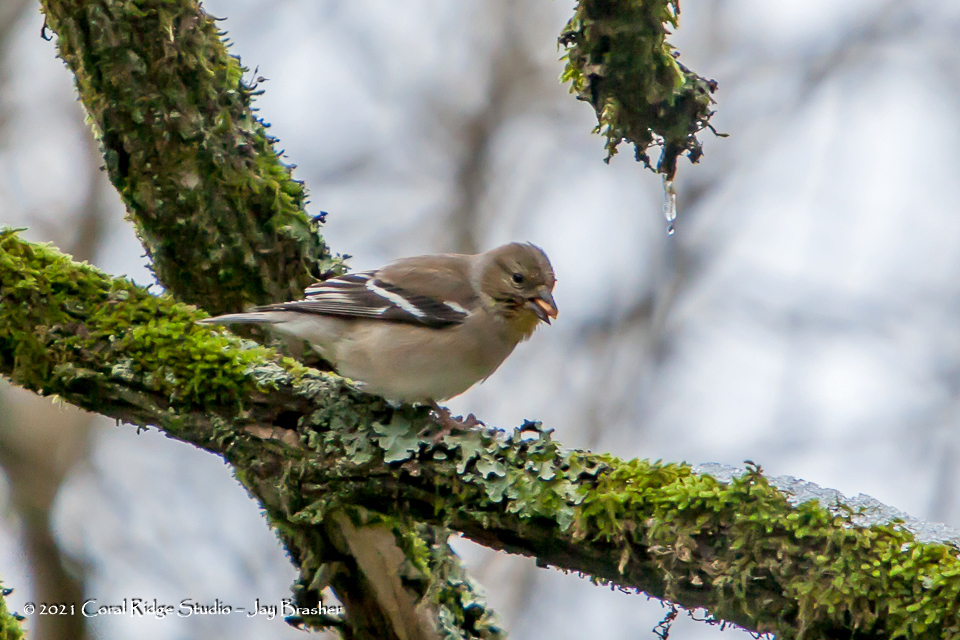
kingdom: Animalia
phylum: Chordata
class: Aves
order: Passeriformes
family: Fringillidae
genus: Spinus
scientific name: Spinus tristis
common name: American goldfinch
